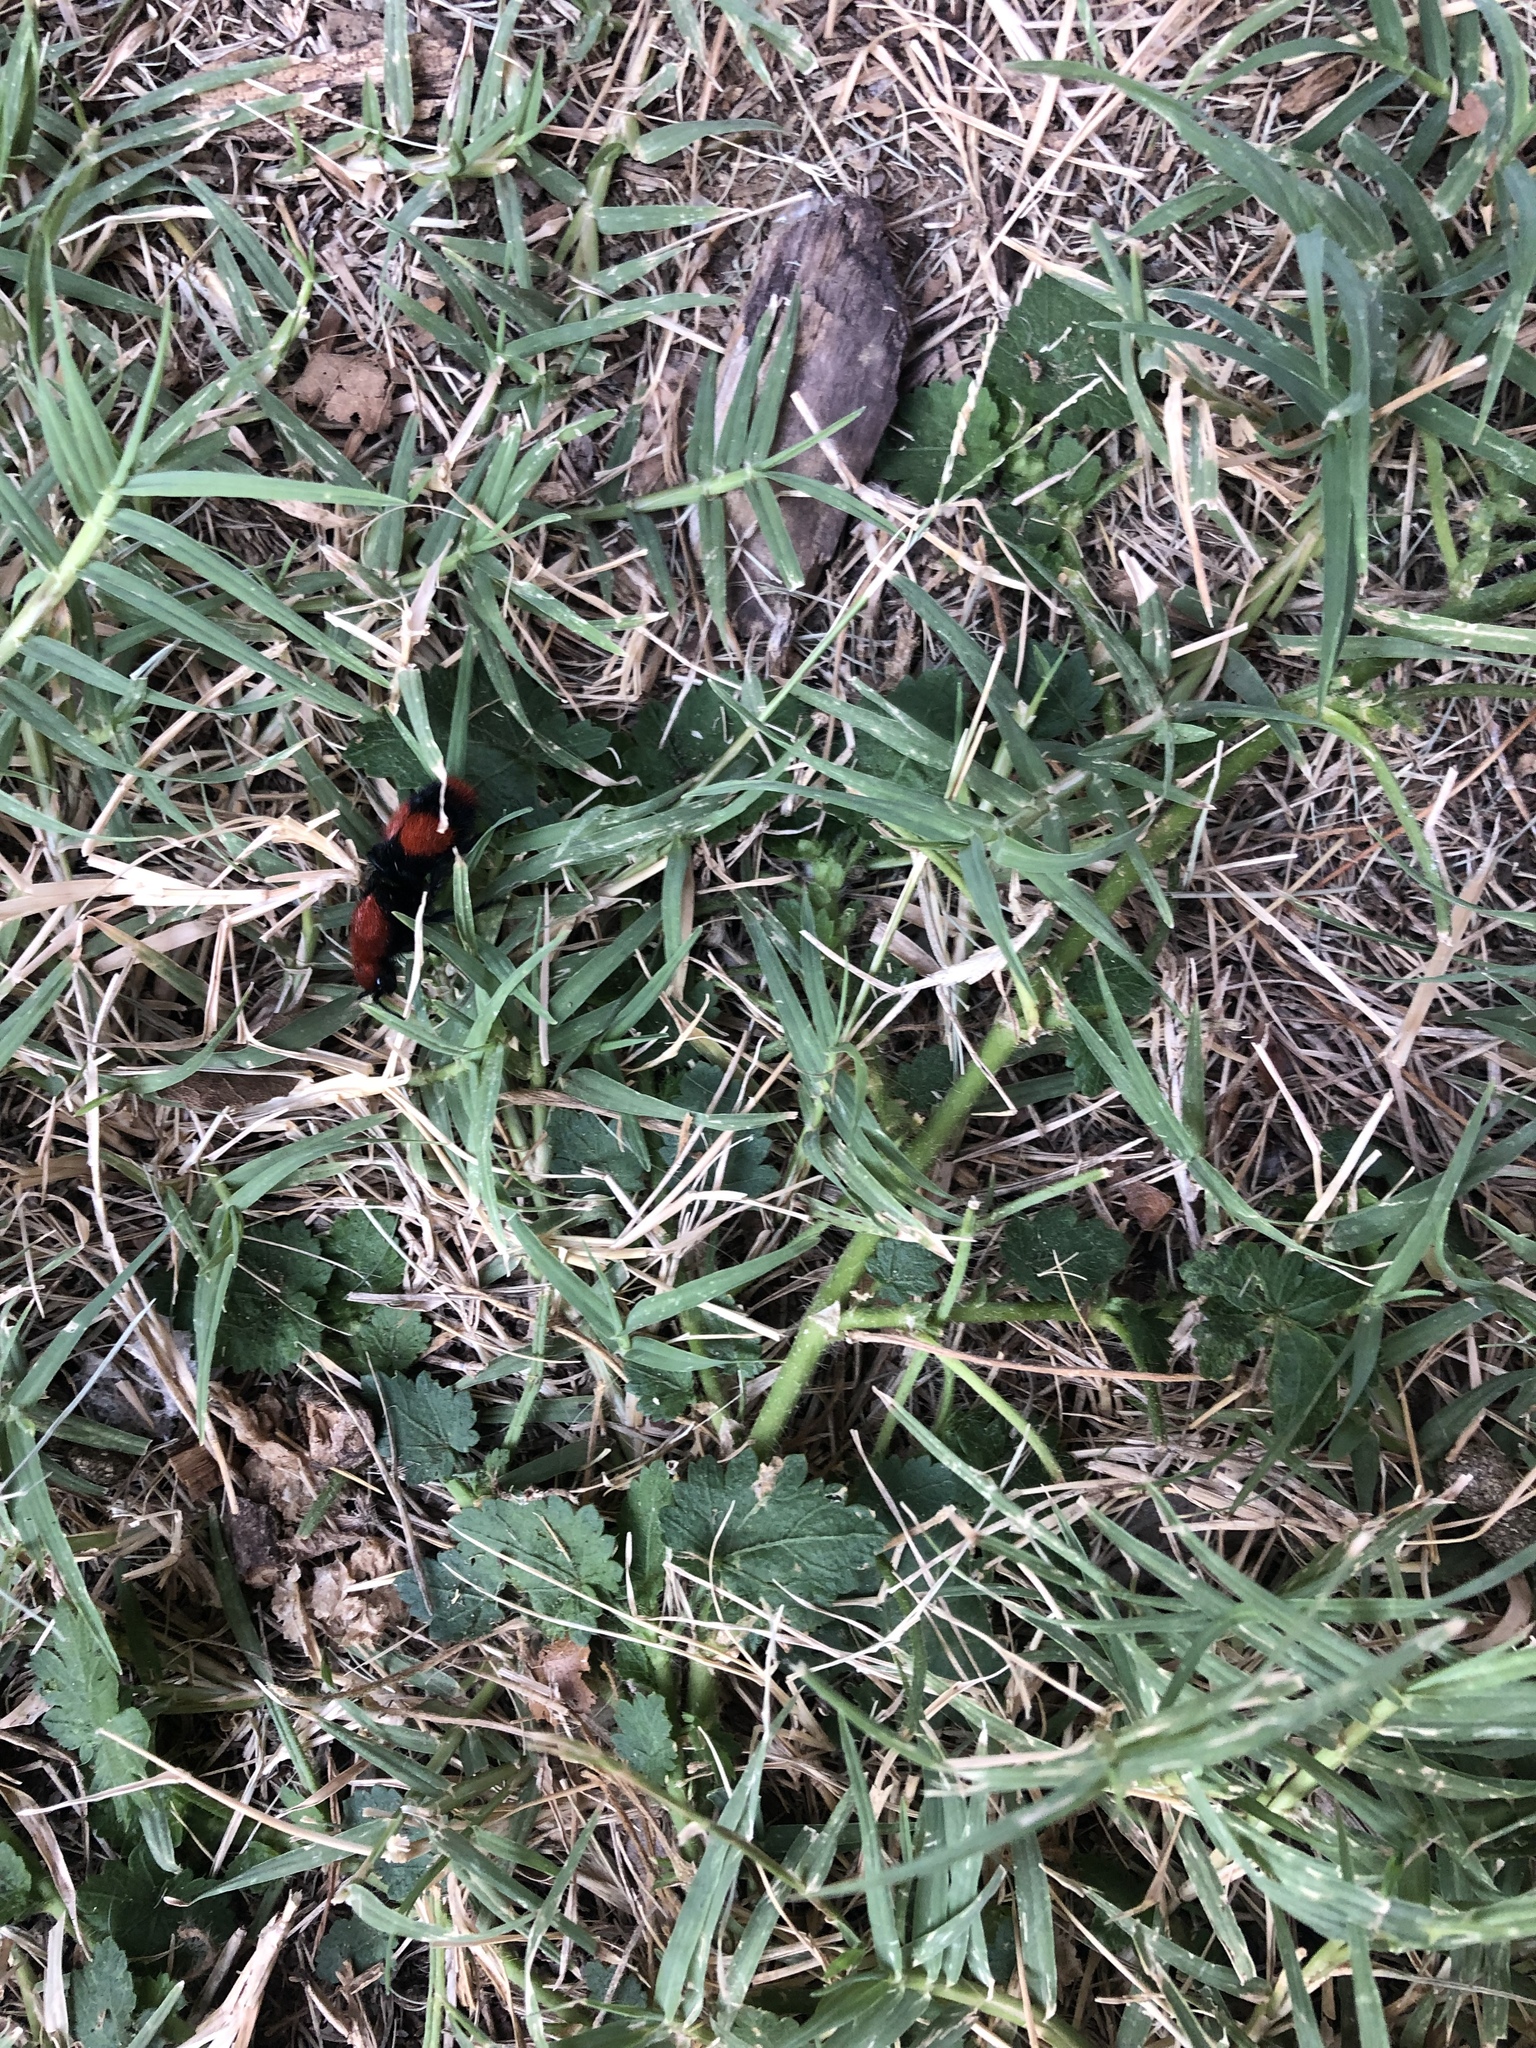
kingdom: Animalia
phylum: Arthropoda
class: Insecta
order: Hymenoptera
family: Mutillidae
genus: Dasymutilla
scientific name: Dasymutilla occidentalis
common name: Common eastern velvet ant
